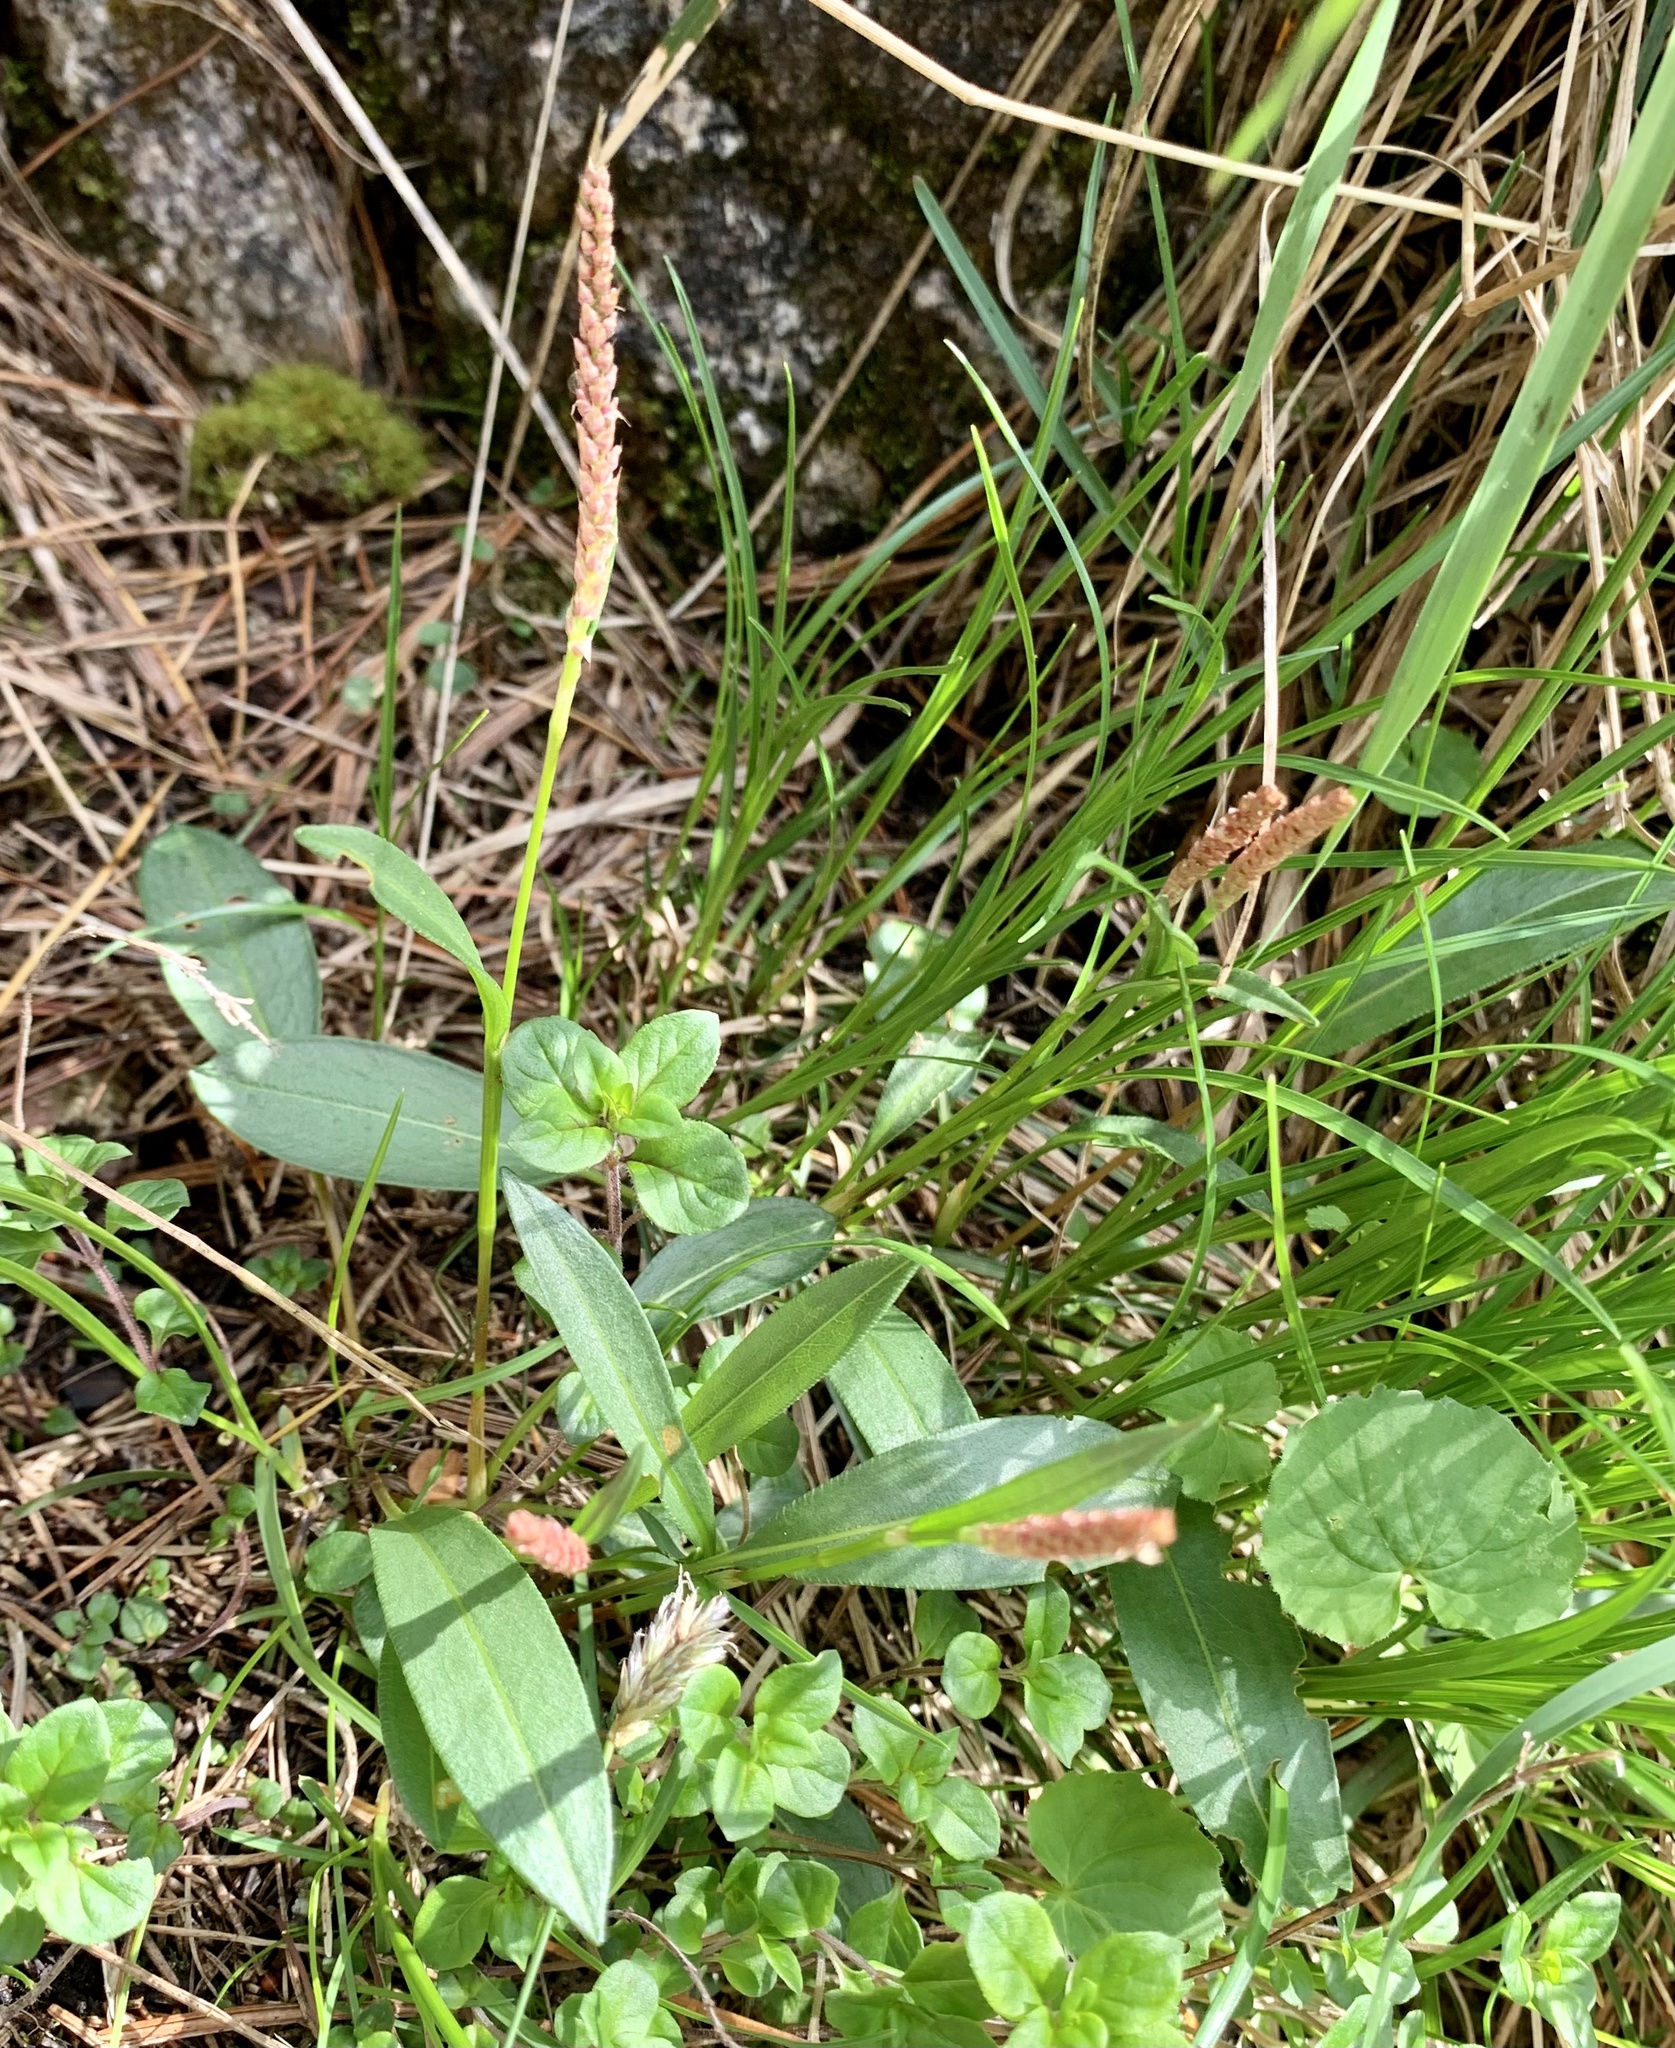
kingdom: Plantae
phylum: Tracheophyta
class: Magnoliopsida
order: Caryophyllales
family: Polygonaceae
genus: Bistorta
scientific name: Bistorta vivipara
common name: Alpine bistort
